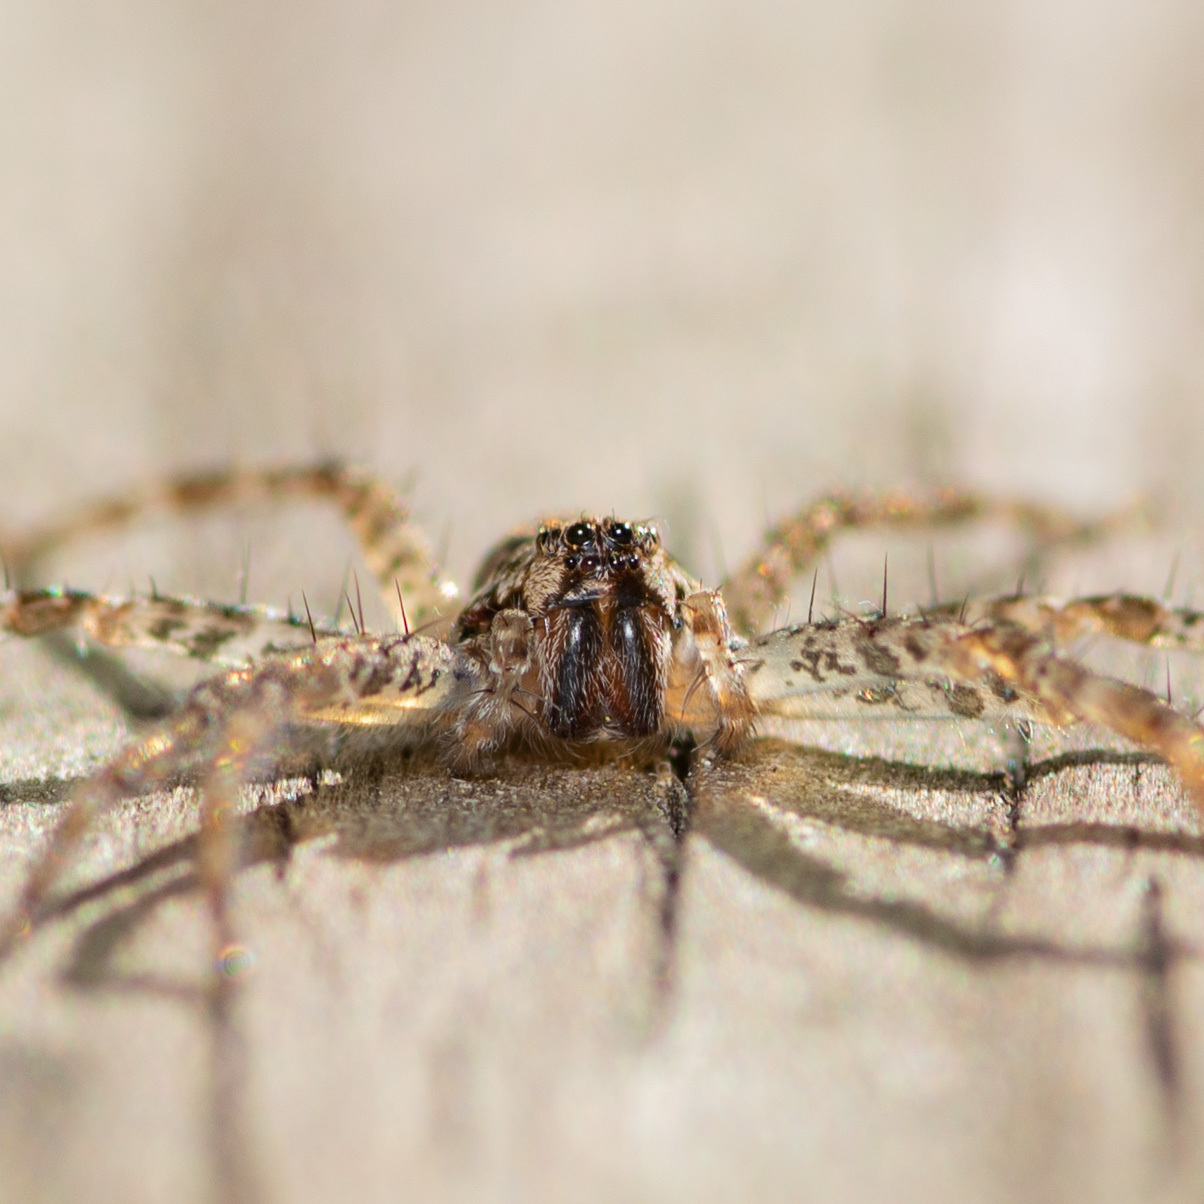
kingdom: Animalia
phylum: Arthropoda
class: Arachnida
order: Araneae
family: Pisauridae
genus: Dolomedes
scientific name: Dolomedes tenebrosus
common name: Dark fishing spider
